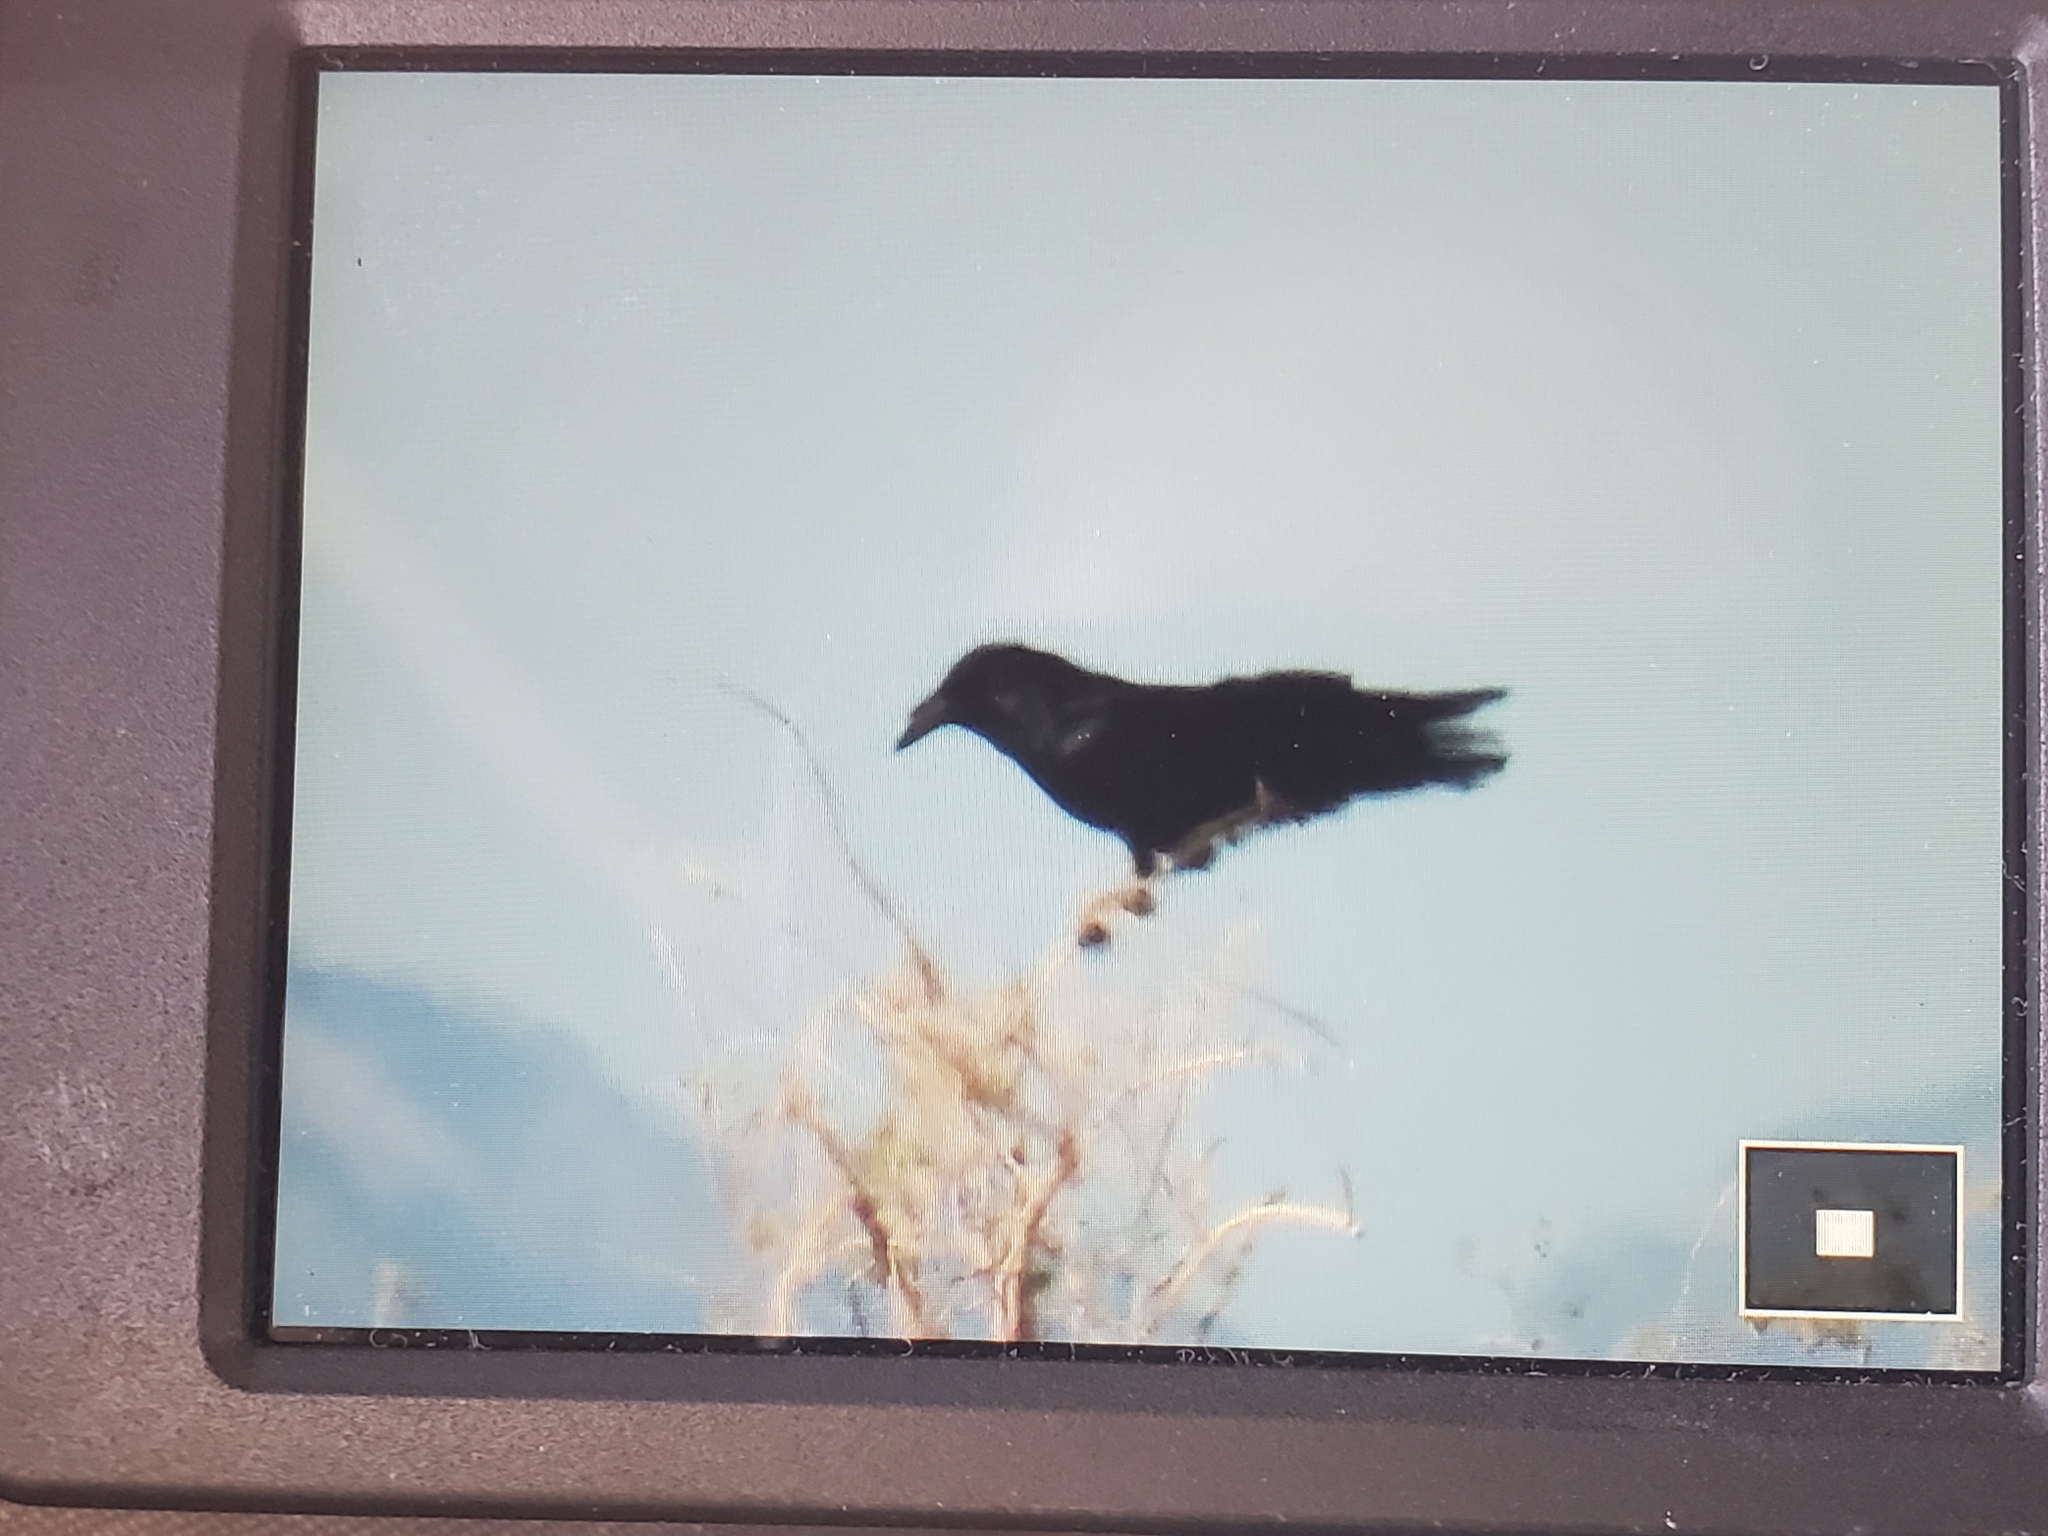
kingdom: Animalia
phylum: Chordata
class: Aves
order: Passeriformes
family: Corvidae
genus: Corvus
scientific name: Corvus corax
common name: Common raven
